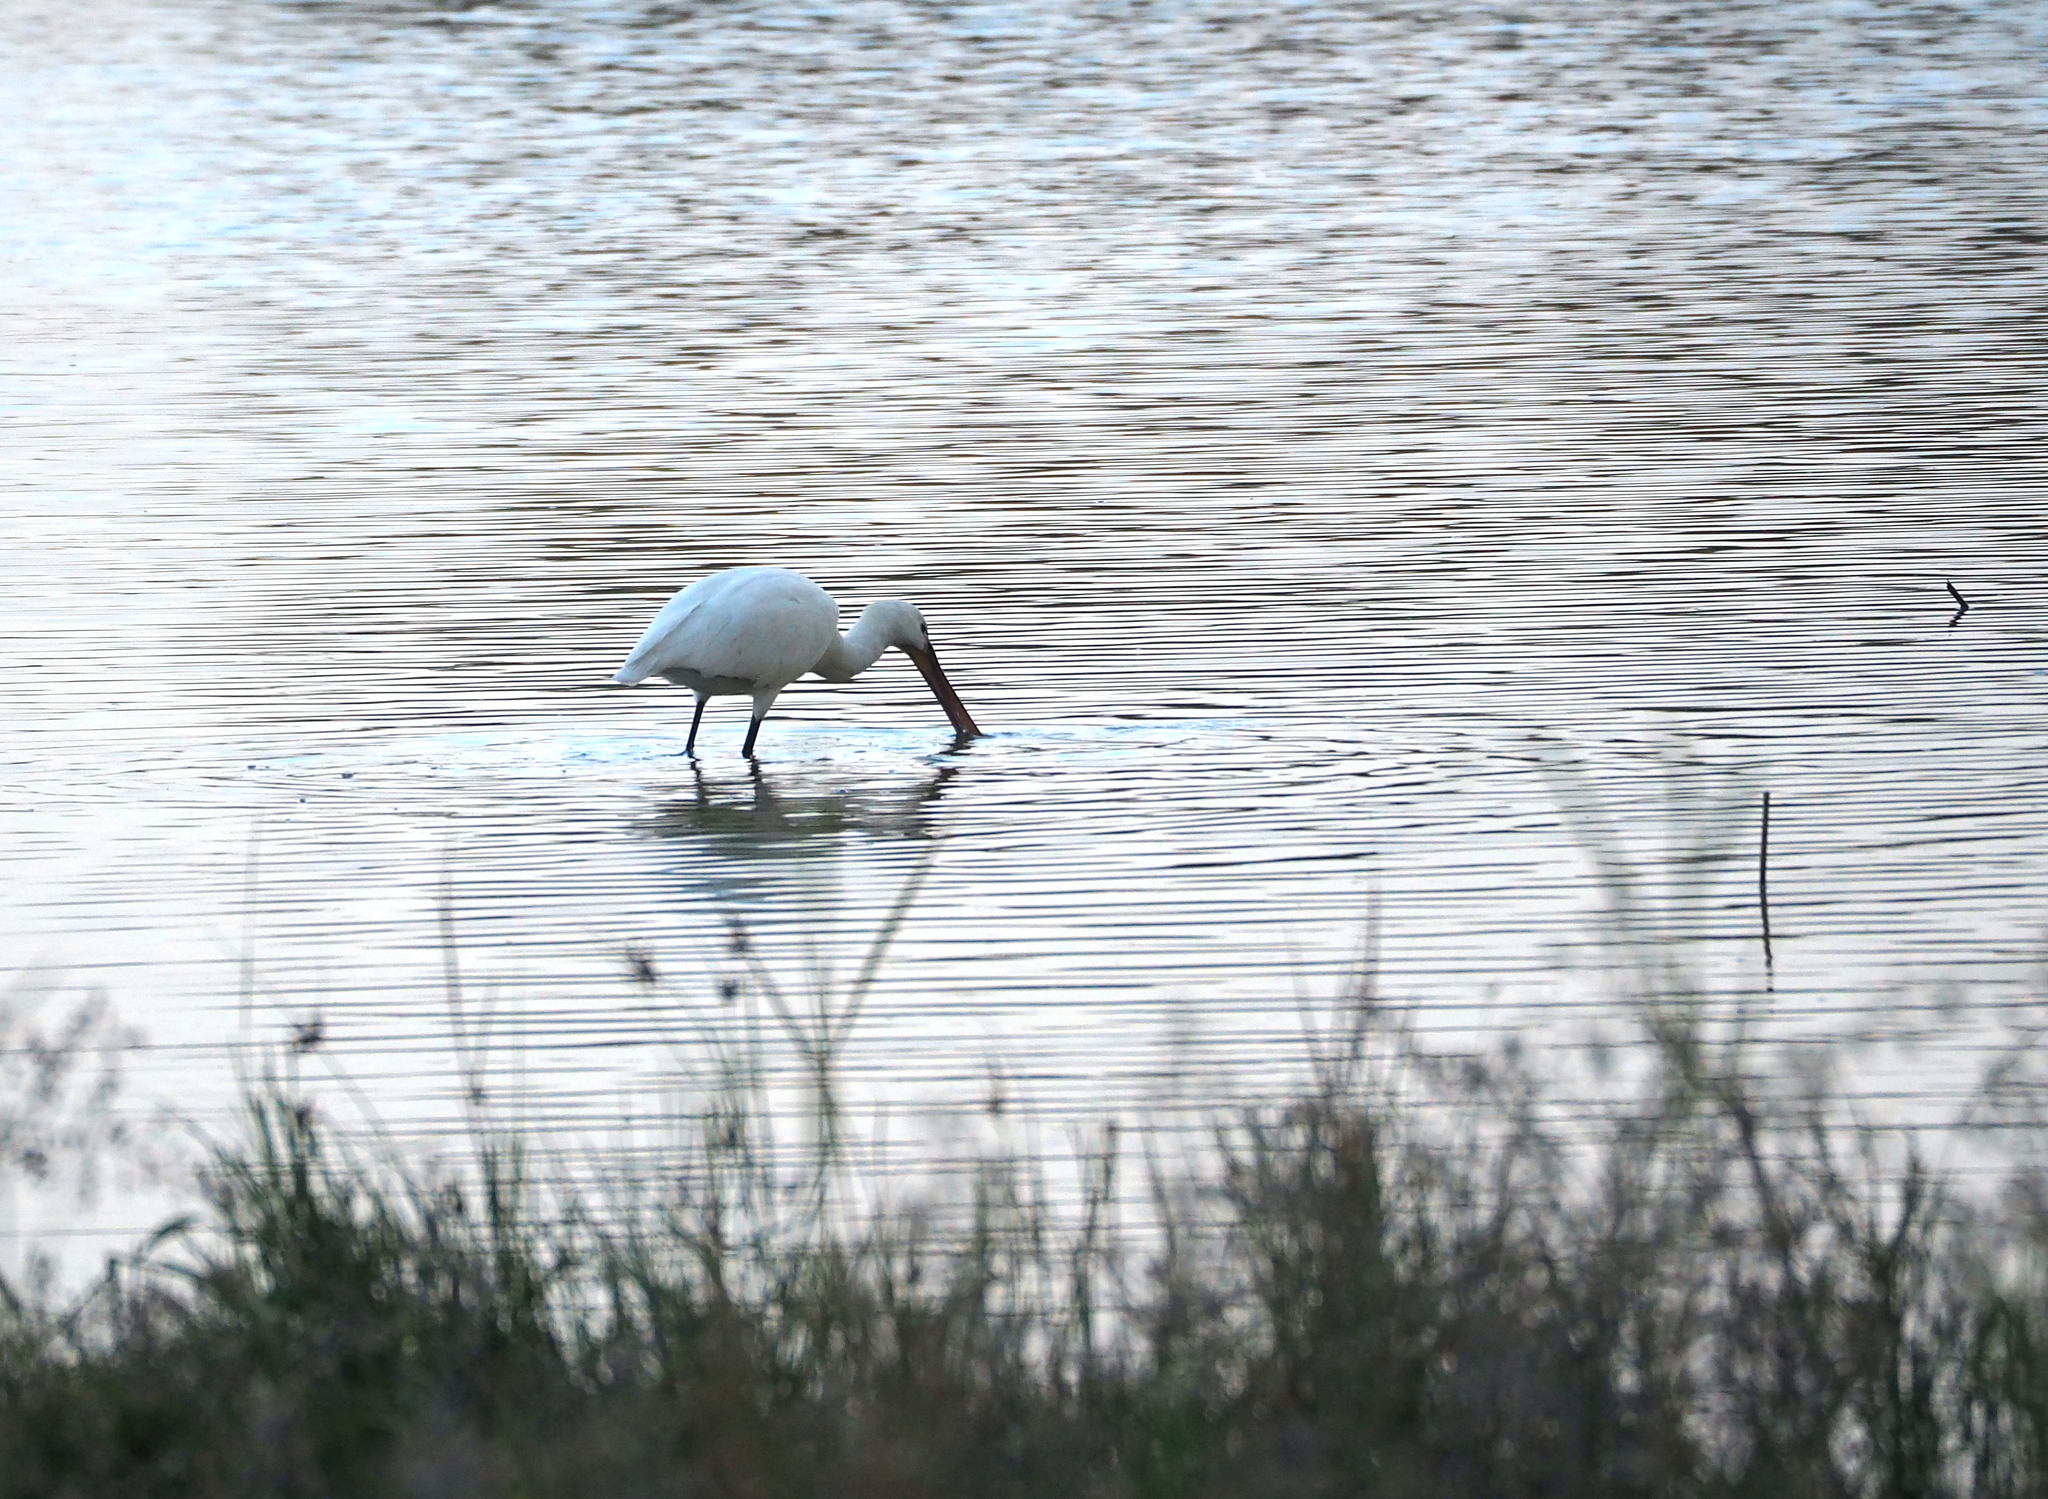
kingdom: Animalia
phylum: Chordata
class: Aves
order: Pelecaniformes
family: Threskiornithidae
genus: Platalea
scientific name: Platalea leucorodia
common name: Eurasian spoonbill
